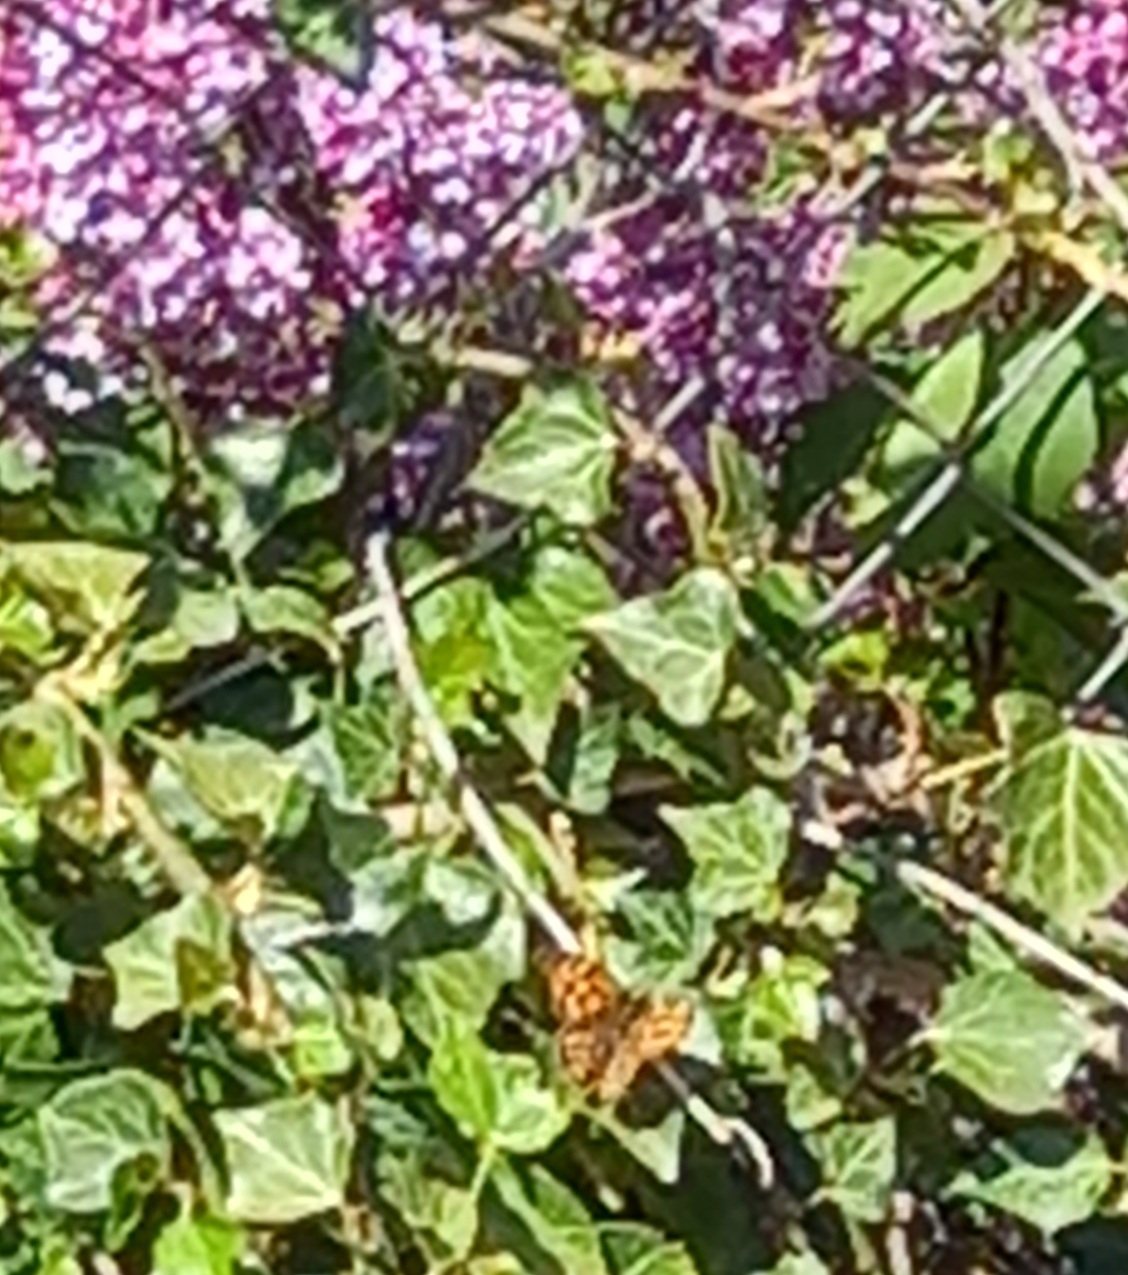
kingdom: Animalia
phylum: Arthropoda
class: Insecta
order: Lepidoptera
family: Nymphalidae
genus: Pararge
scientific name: Pararge aegeria
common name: Speckled wood
